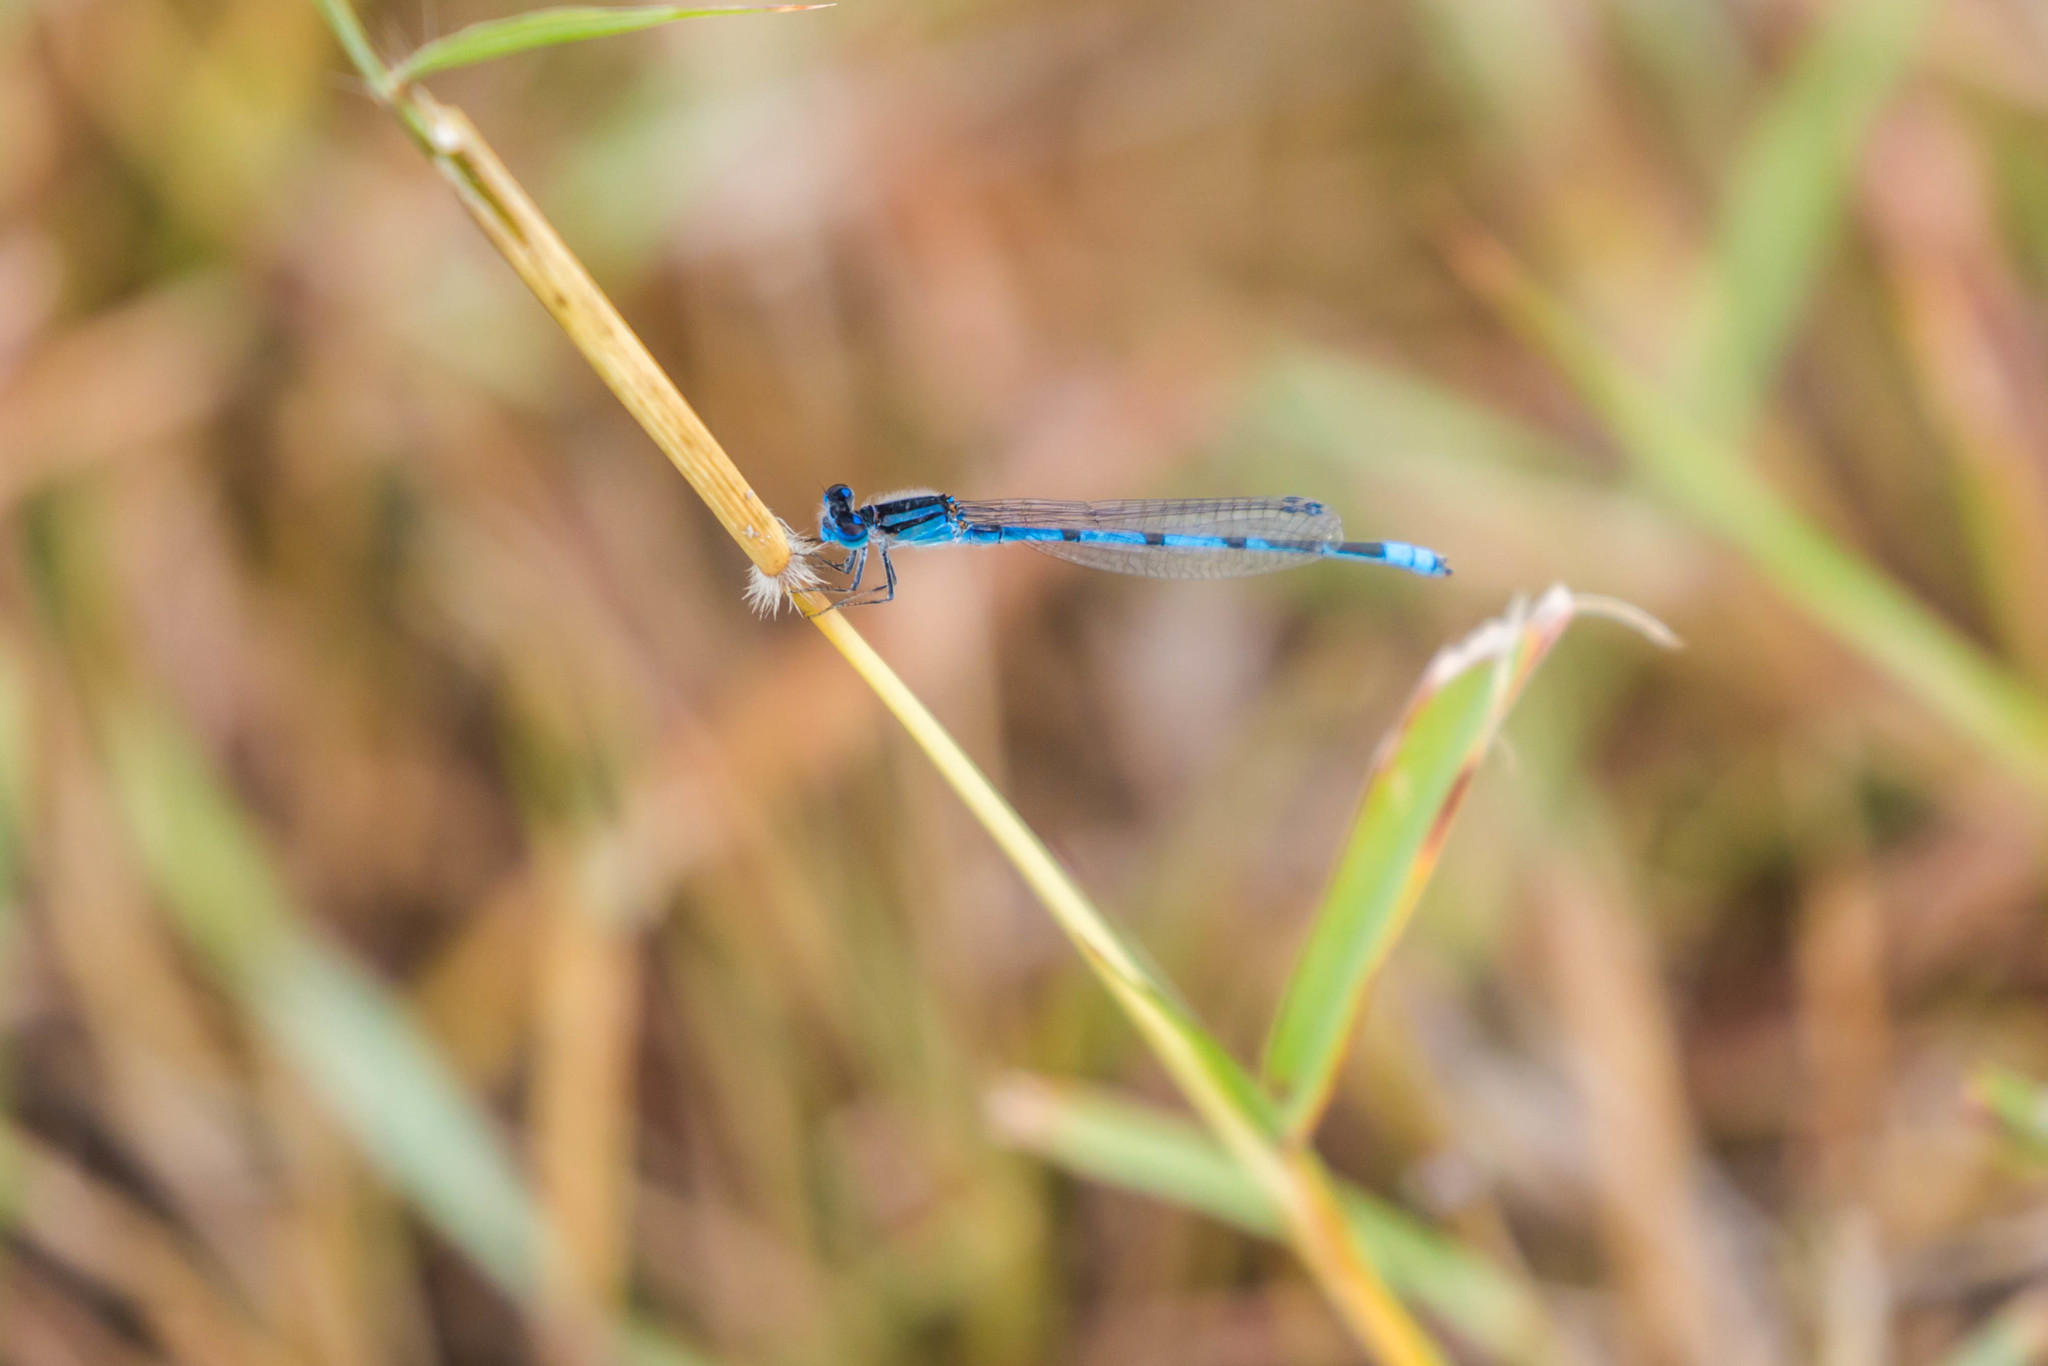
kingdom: Animalia
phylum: Arthropoda
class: Insecta
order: Odonata
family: Coenagrionidae
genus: Enallagma
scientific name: Enallagma civile
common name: Damselfly
